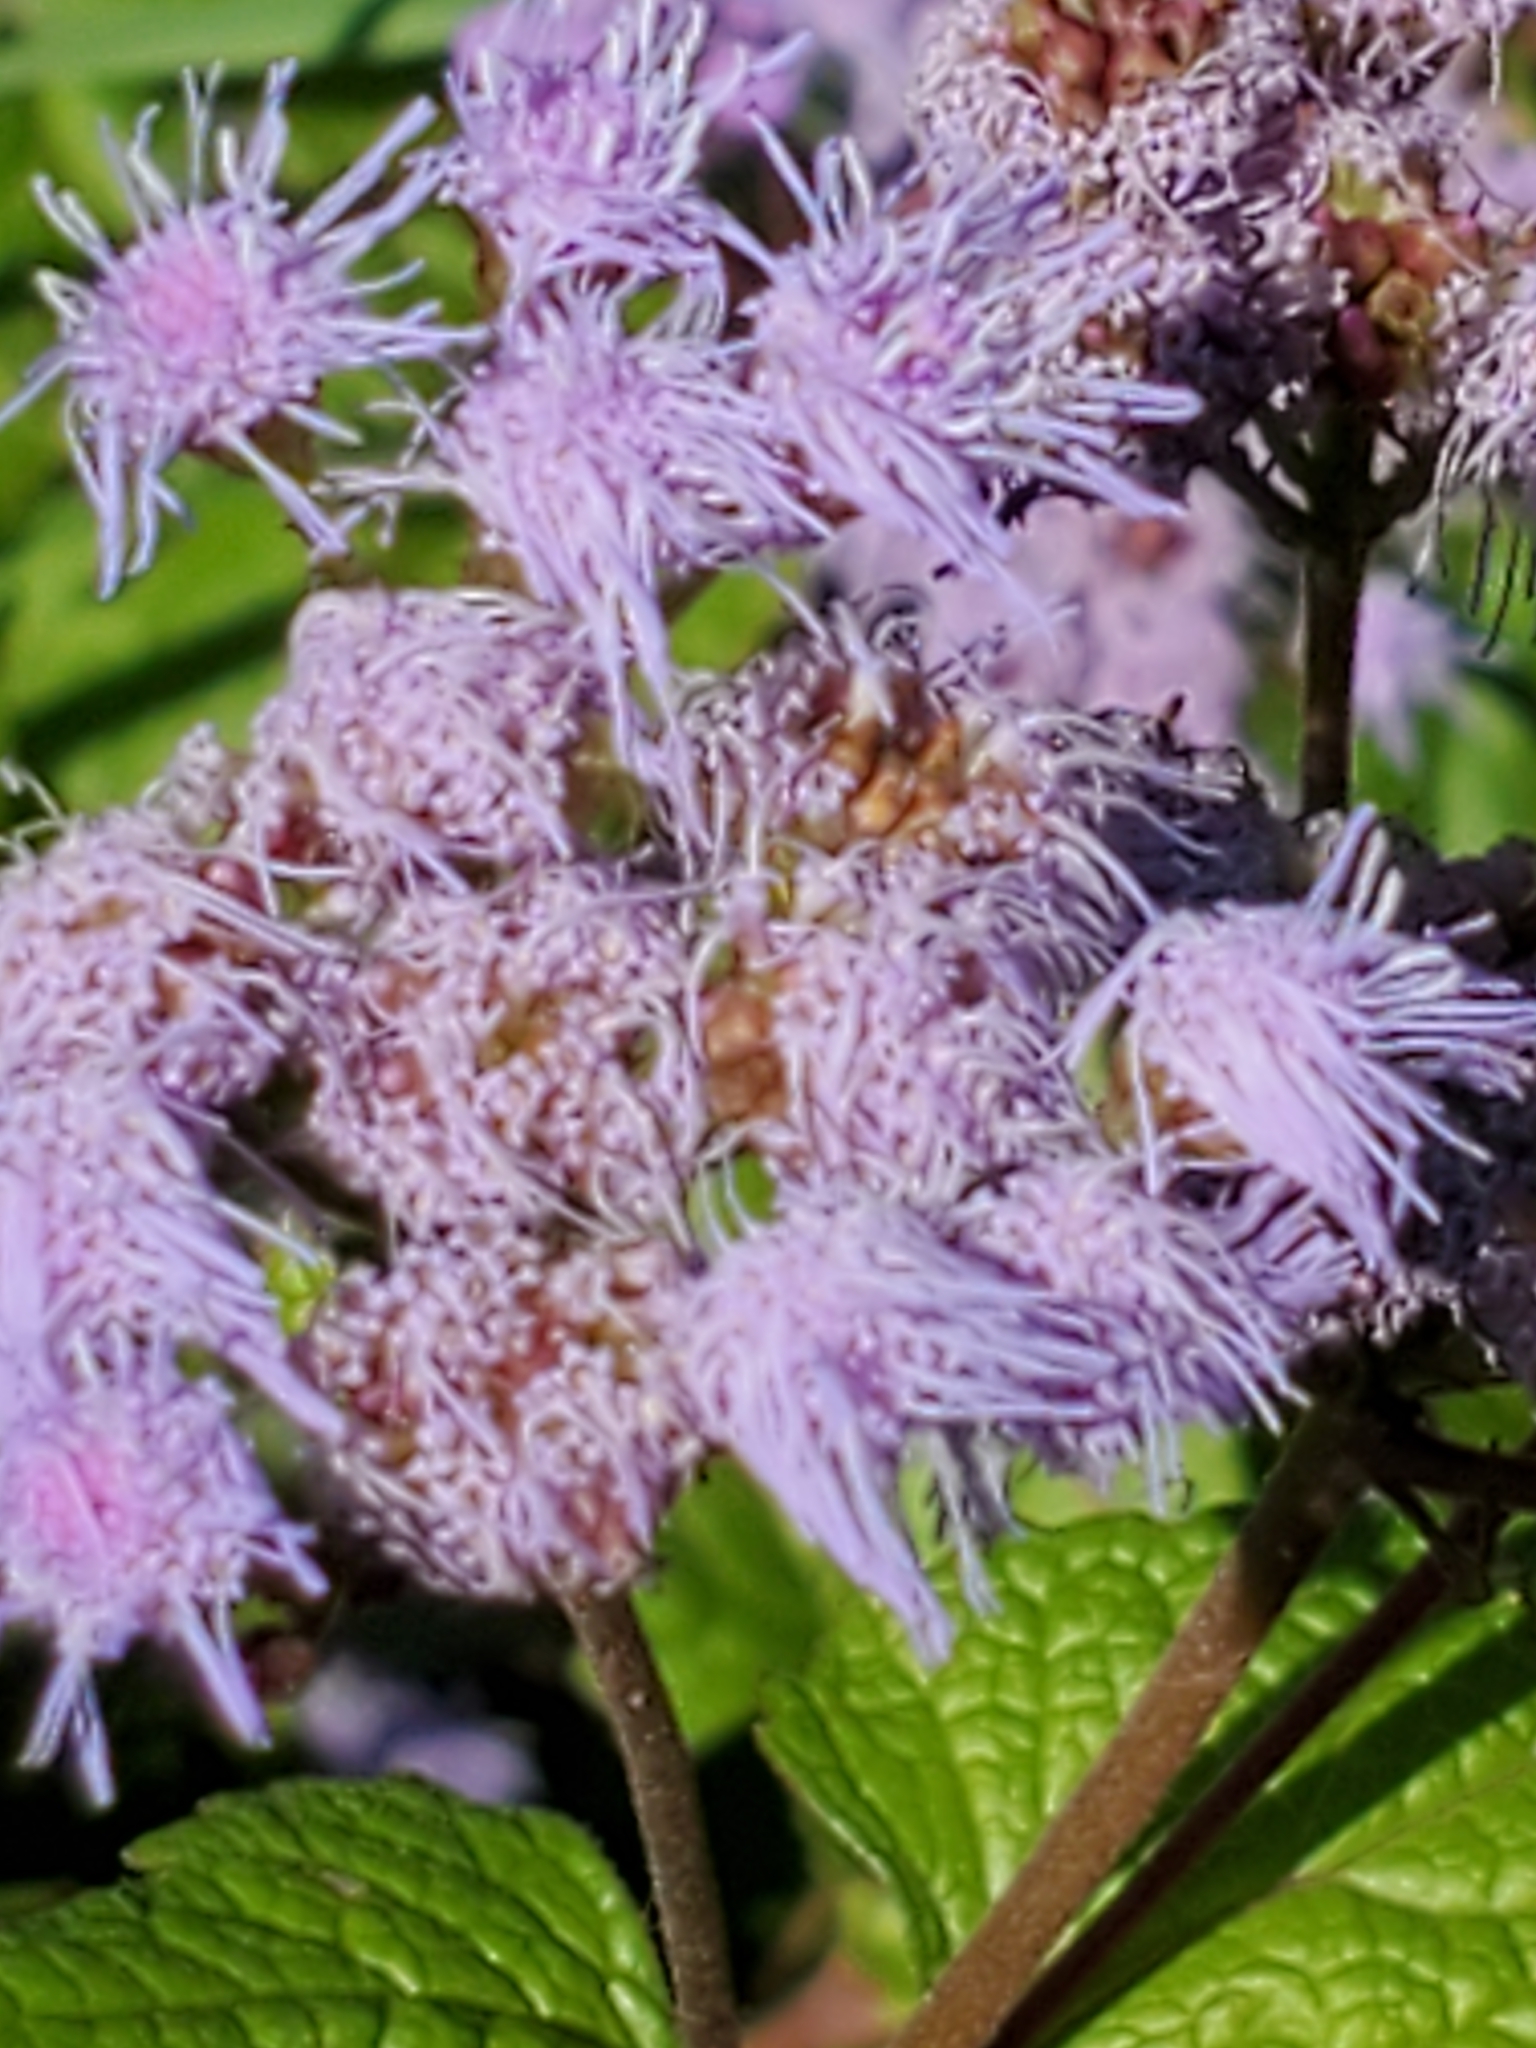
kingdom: Plantae
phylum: Tracheophyta
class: Magnoliopsida
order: Asterales
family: Asteraceae
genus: Conoclinium
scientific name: Conoclinium coelestinum
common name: Blue mistflower
